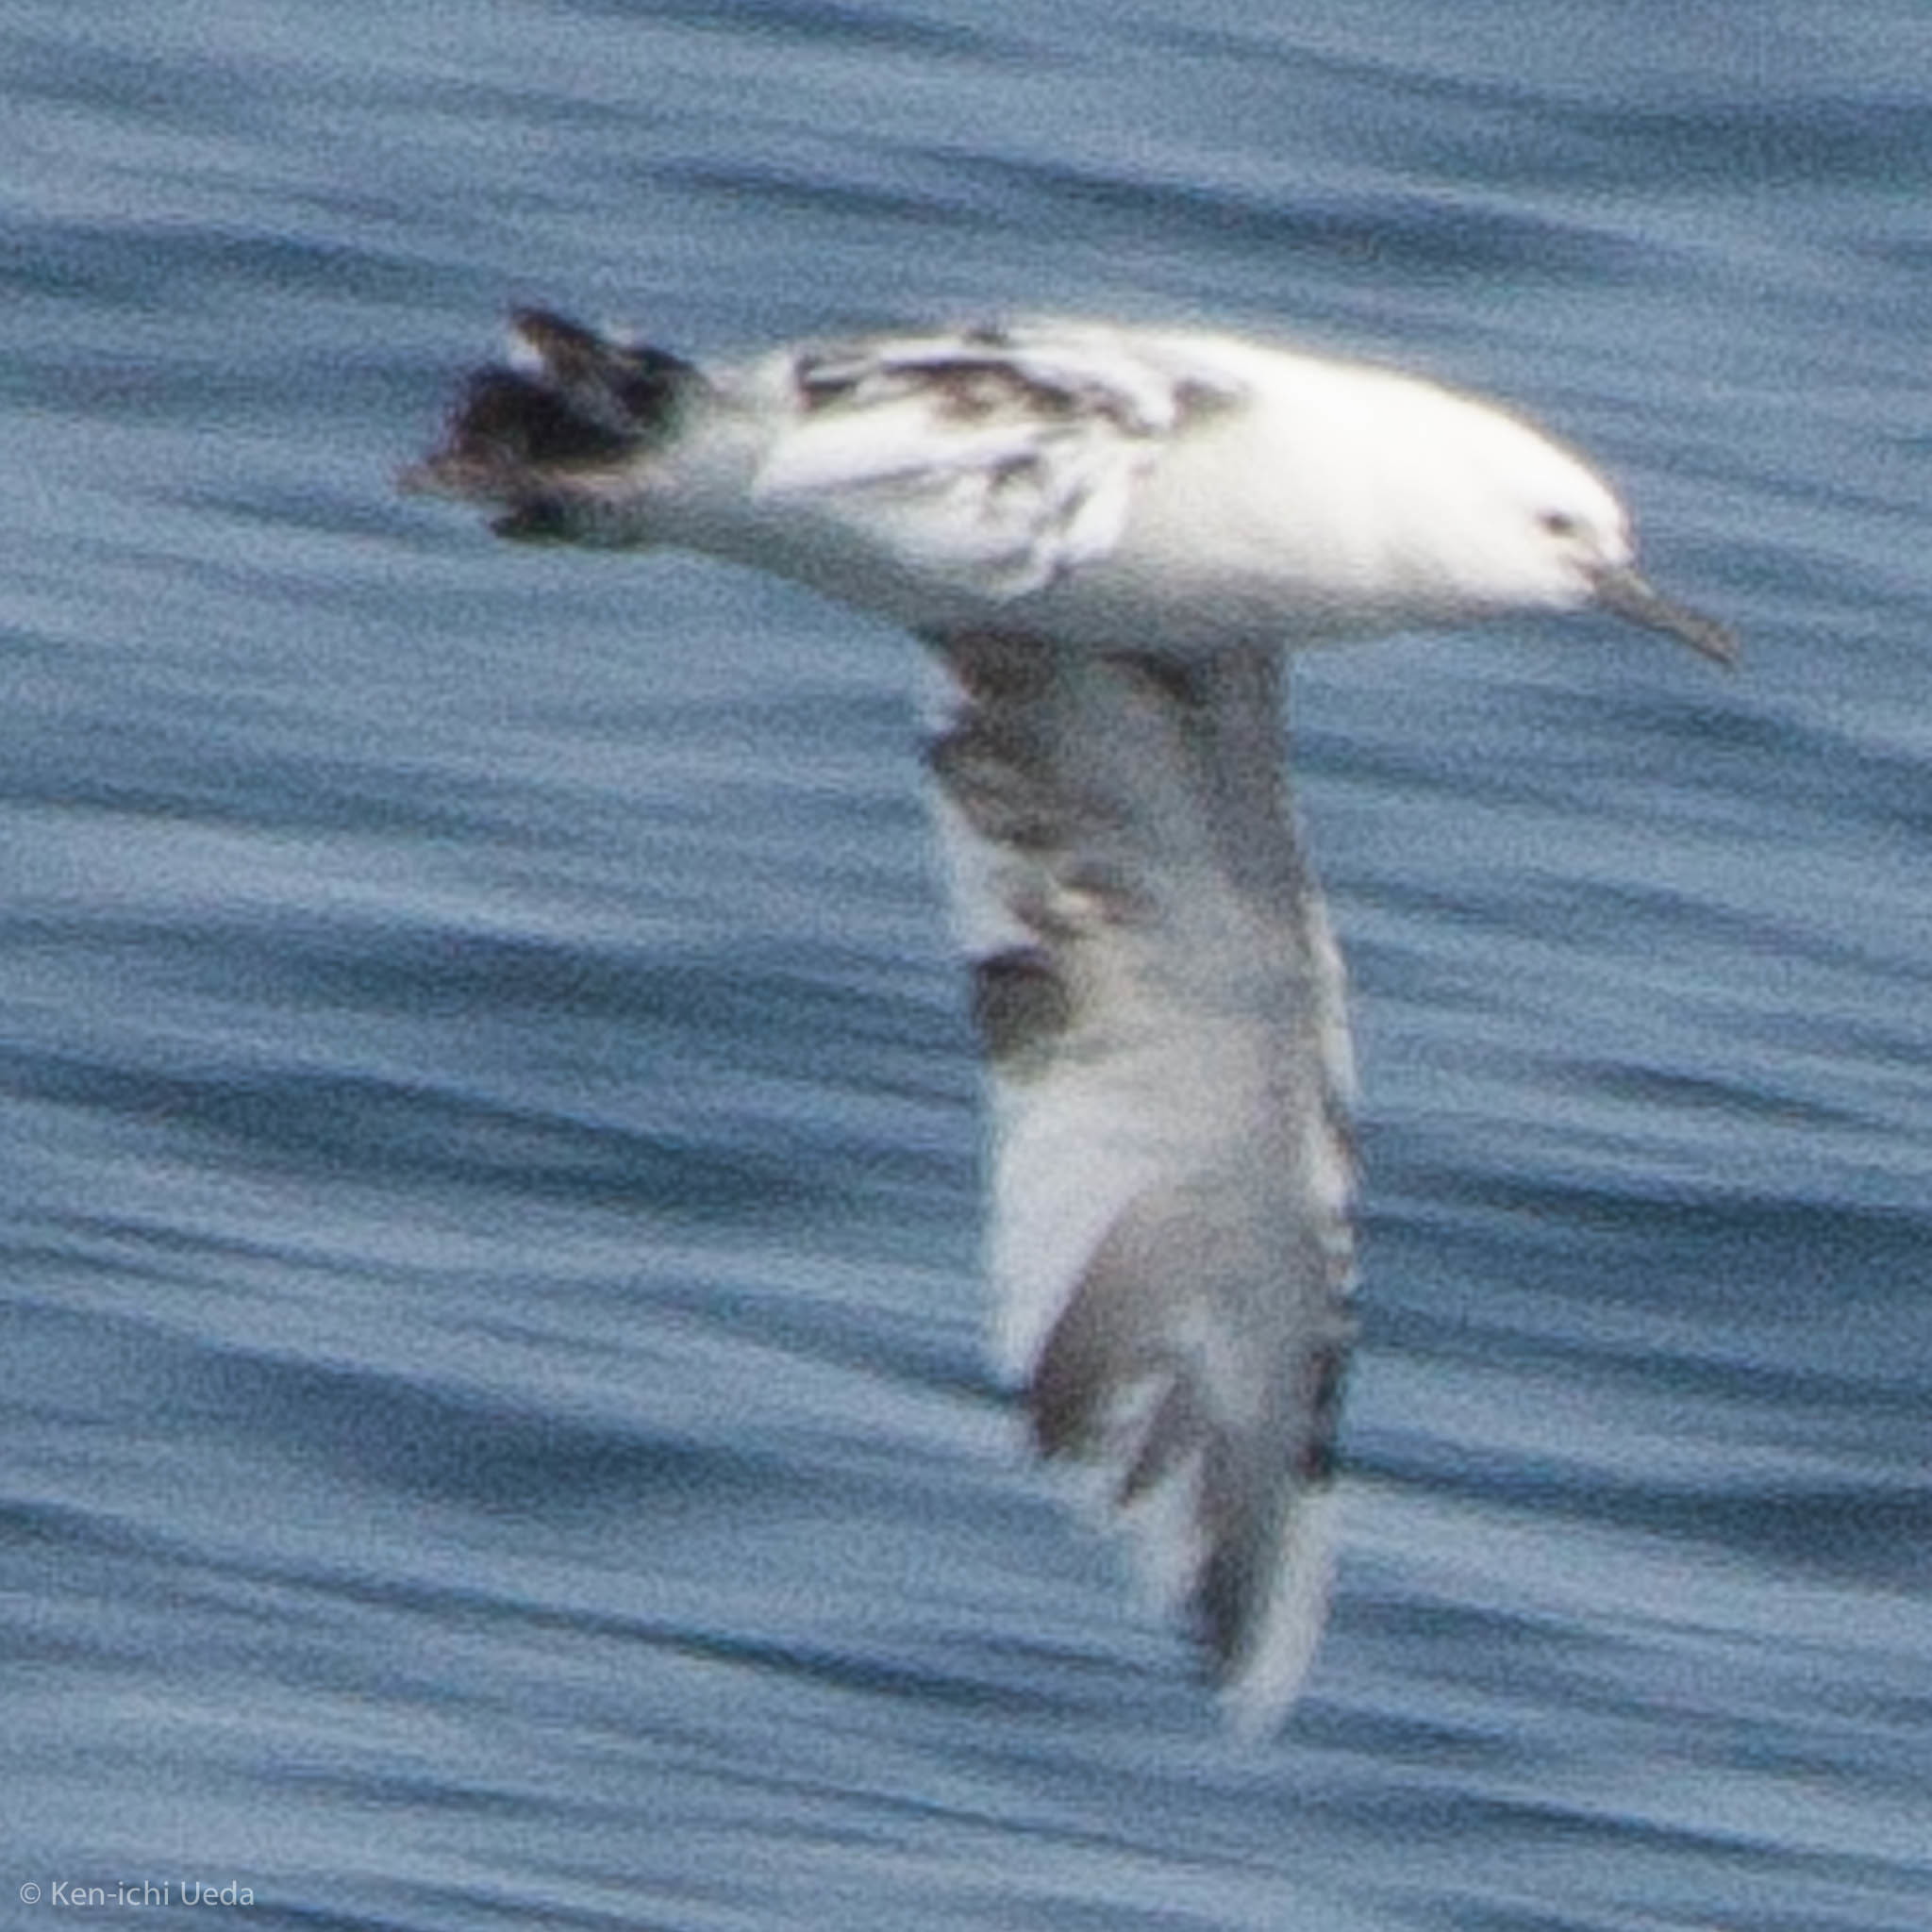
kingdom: Animalia
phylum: Chordata
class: Aves
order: Procellariiformes
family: Procellariidae
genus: Puffinus
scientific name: Puffinus opisthomelas
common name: Black-vented shearwater
